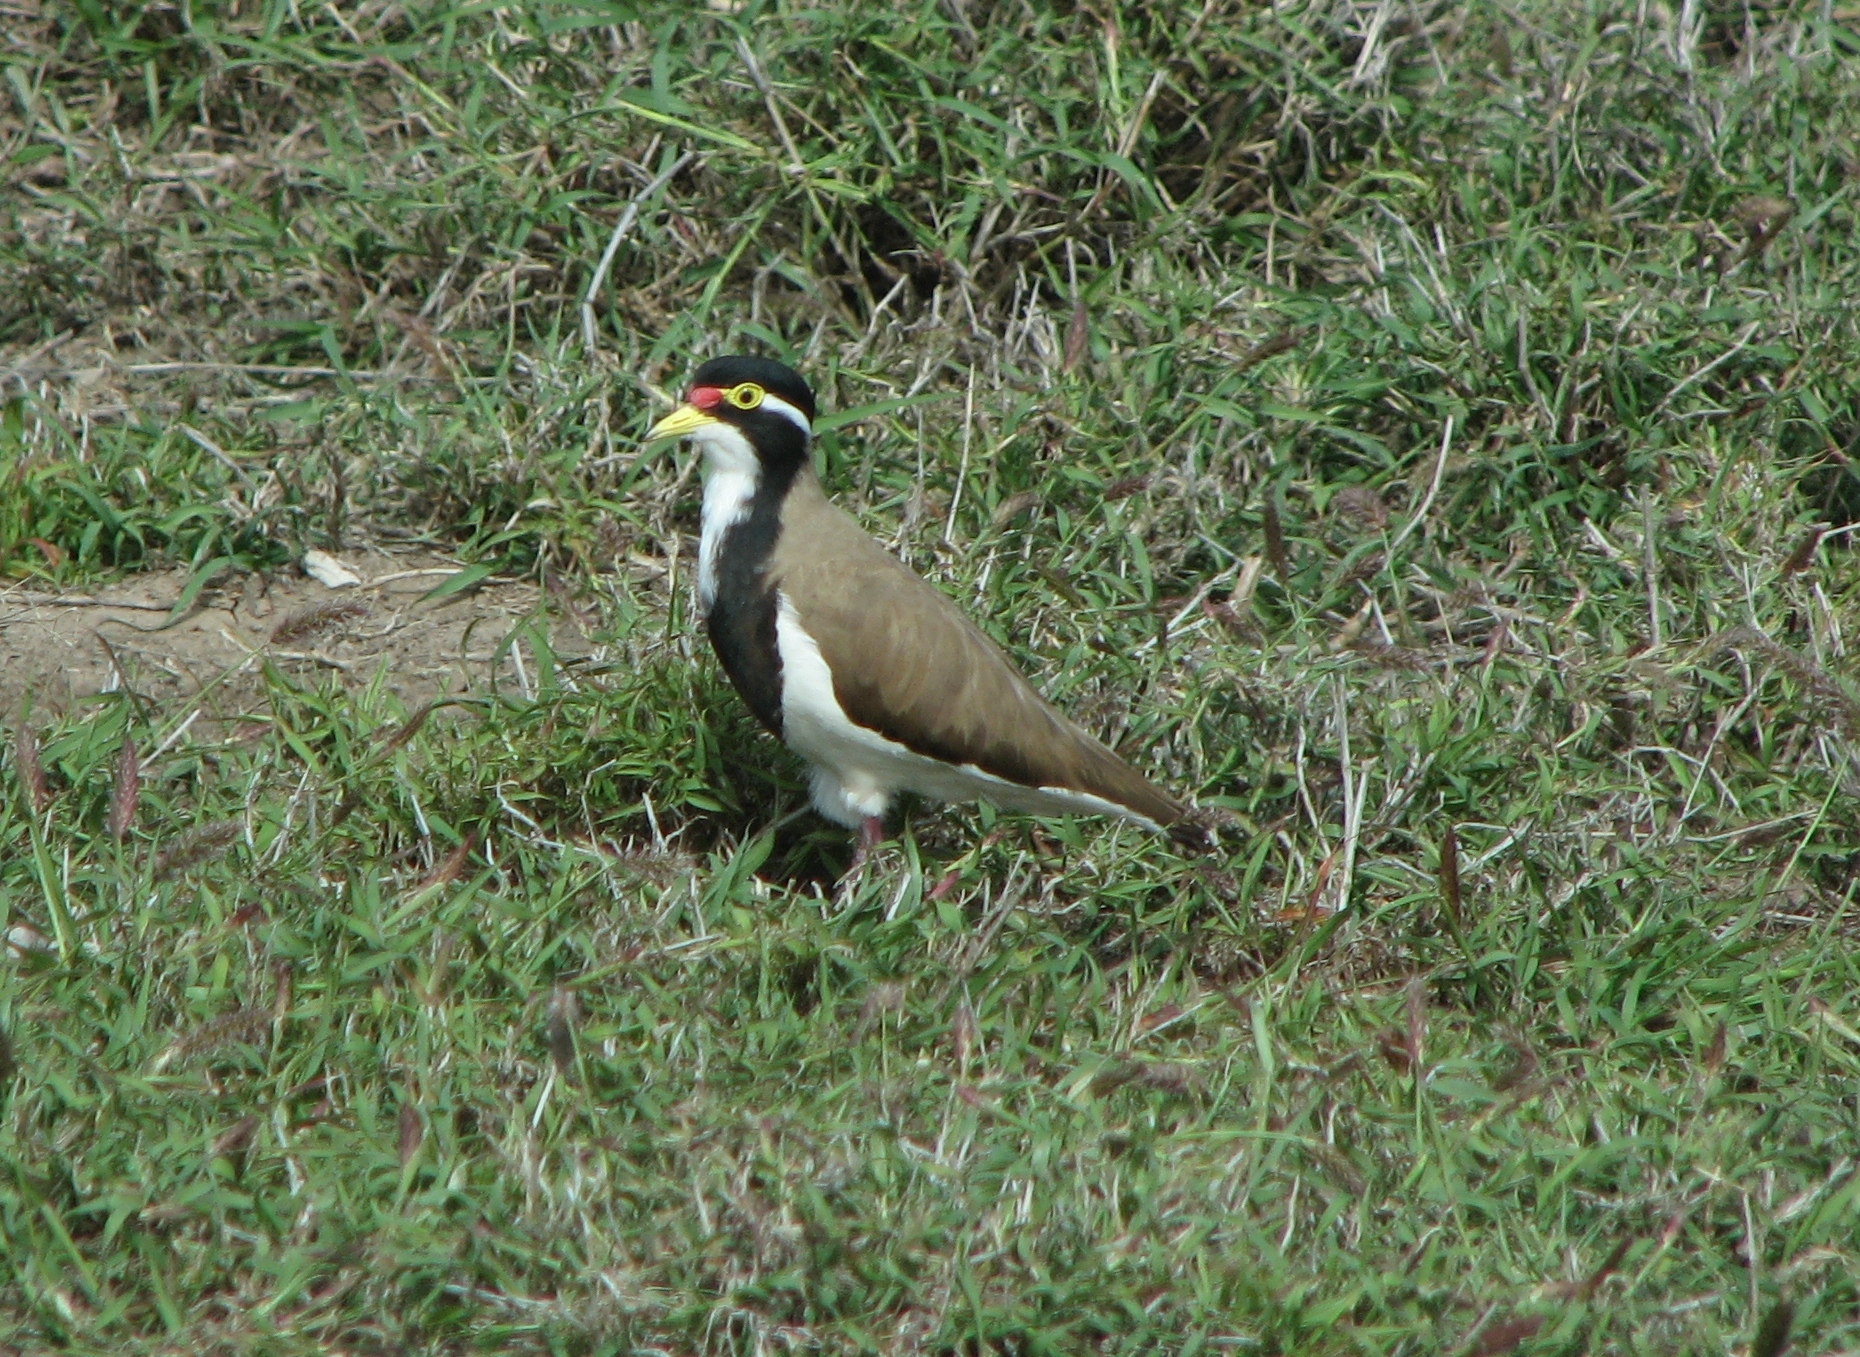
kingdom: Animalia
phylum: Chordata
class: Aves
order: Charadriiformes
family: Charadriidae
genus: Vanellus
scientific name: Vanellus tricolor
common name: Banded lapwing
